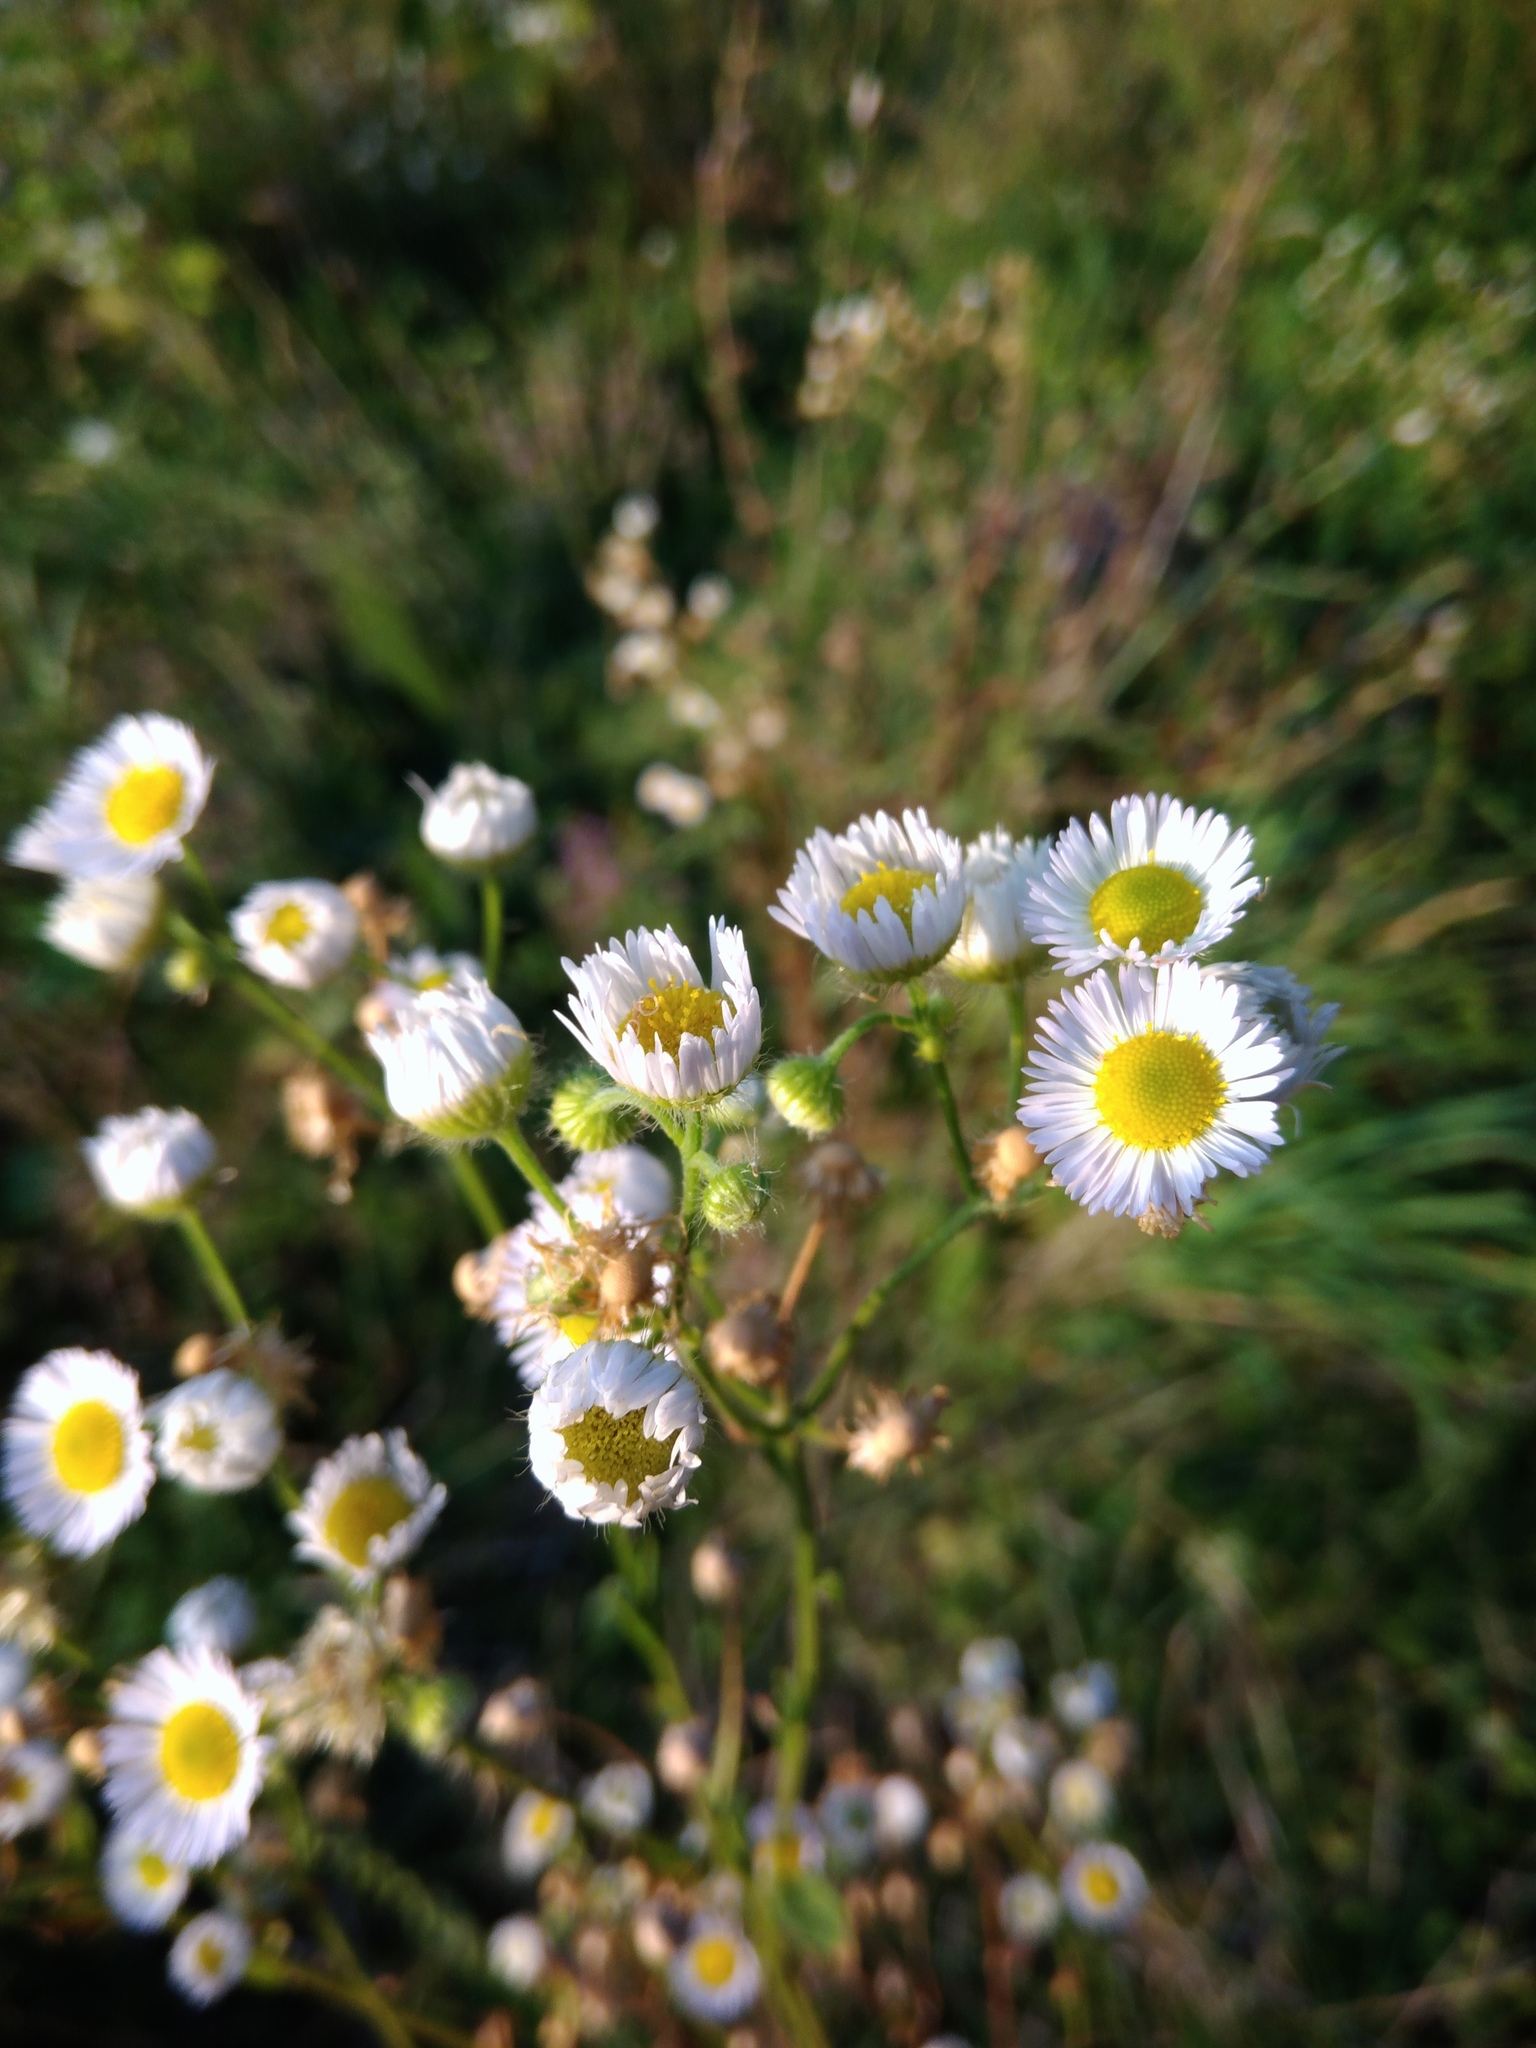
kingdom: Plantae
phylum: Tracheophyta
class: Magnoliopsida
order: Asterales
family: Asteraceae
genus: Erigeron
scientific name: Erigeron annuus
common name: Tall fleabane
